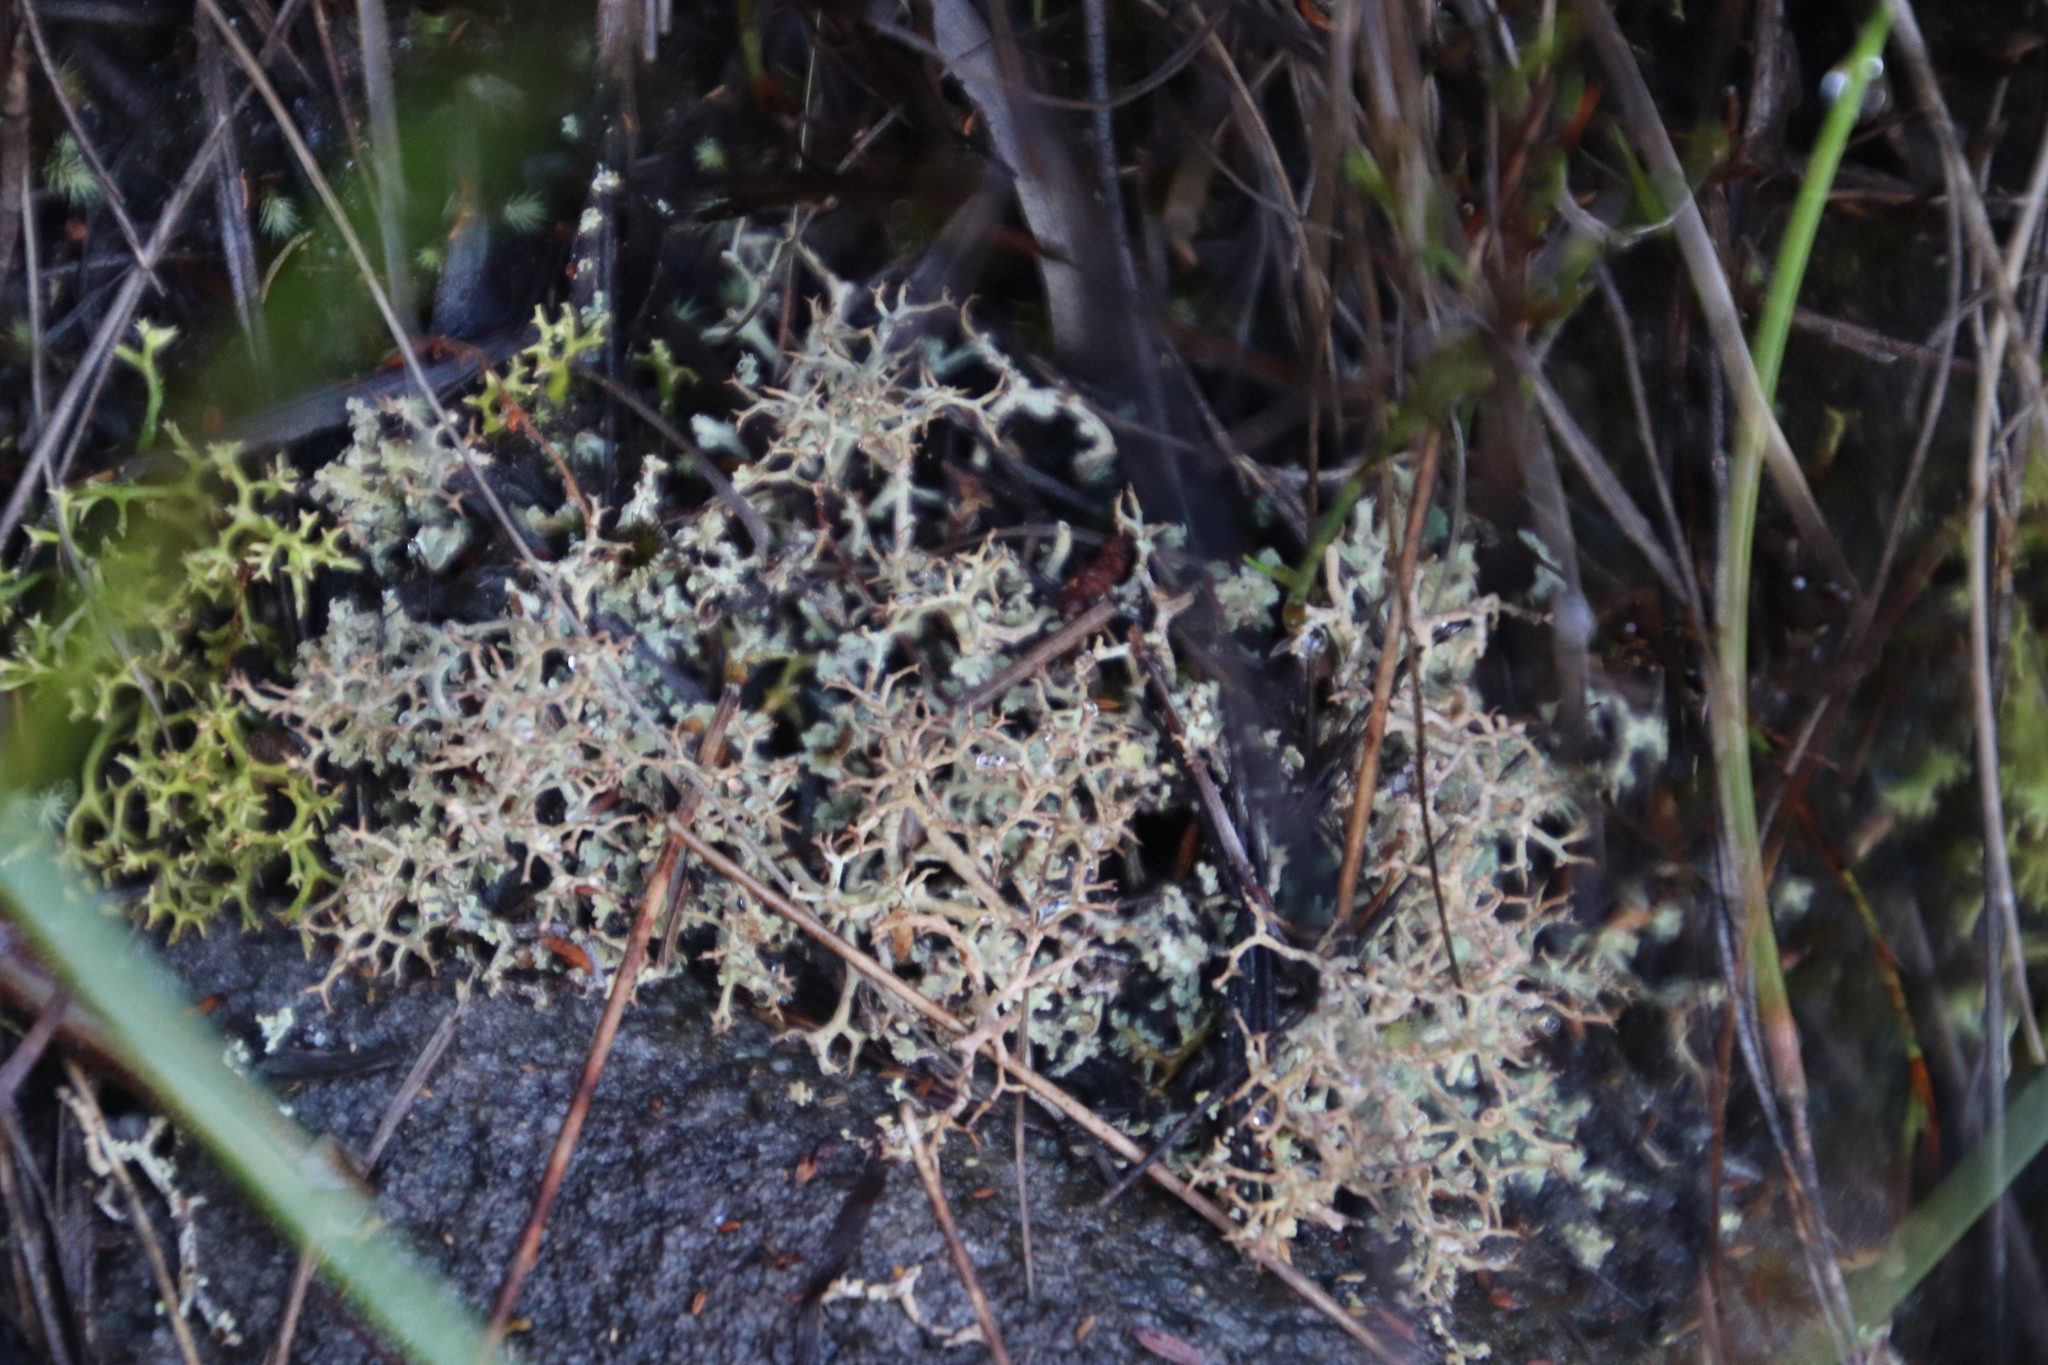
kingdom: Fungi
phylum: Ascomycota
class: Lecanoromycetes
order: Lecanorales
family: Cladoniaceae
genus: Cladonia
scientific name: Cladonia
